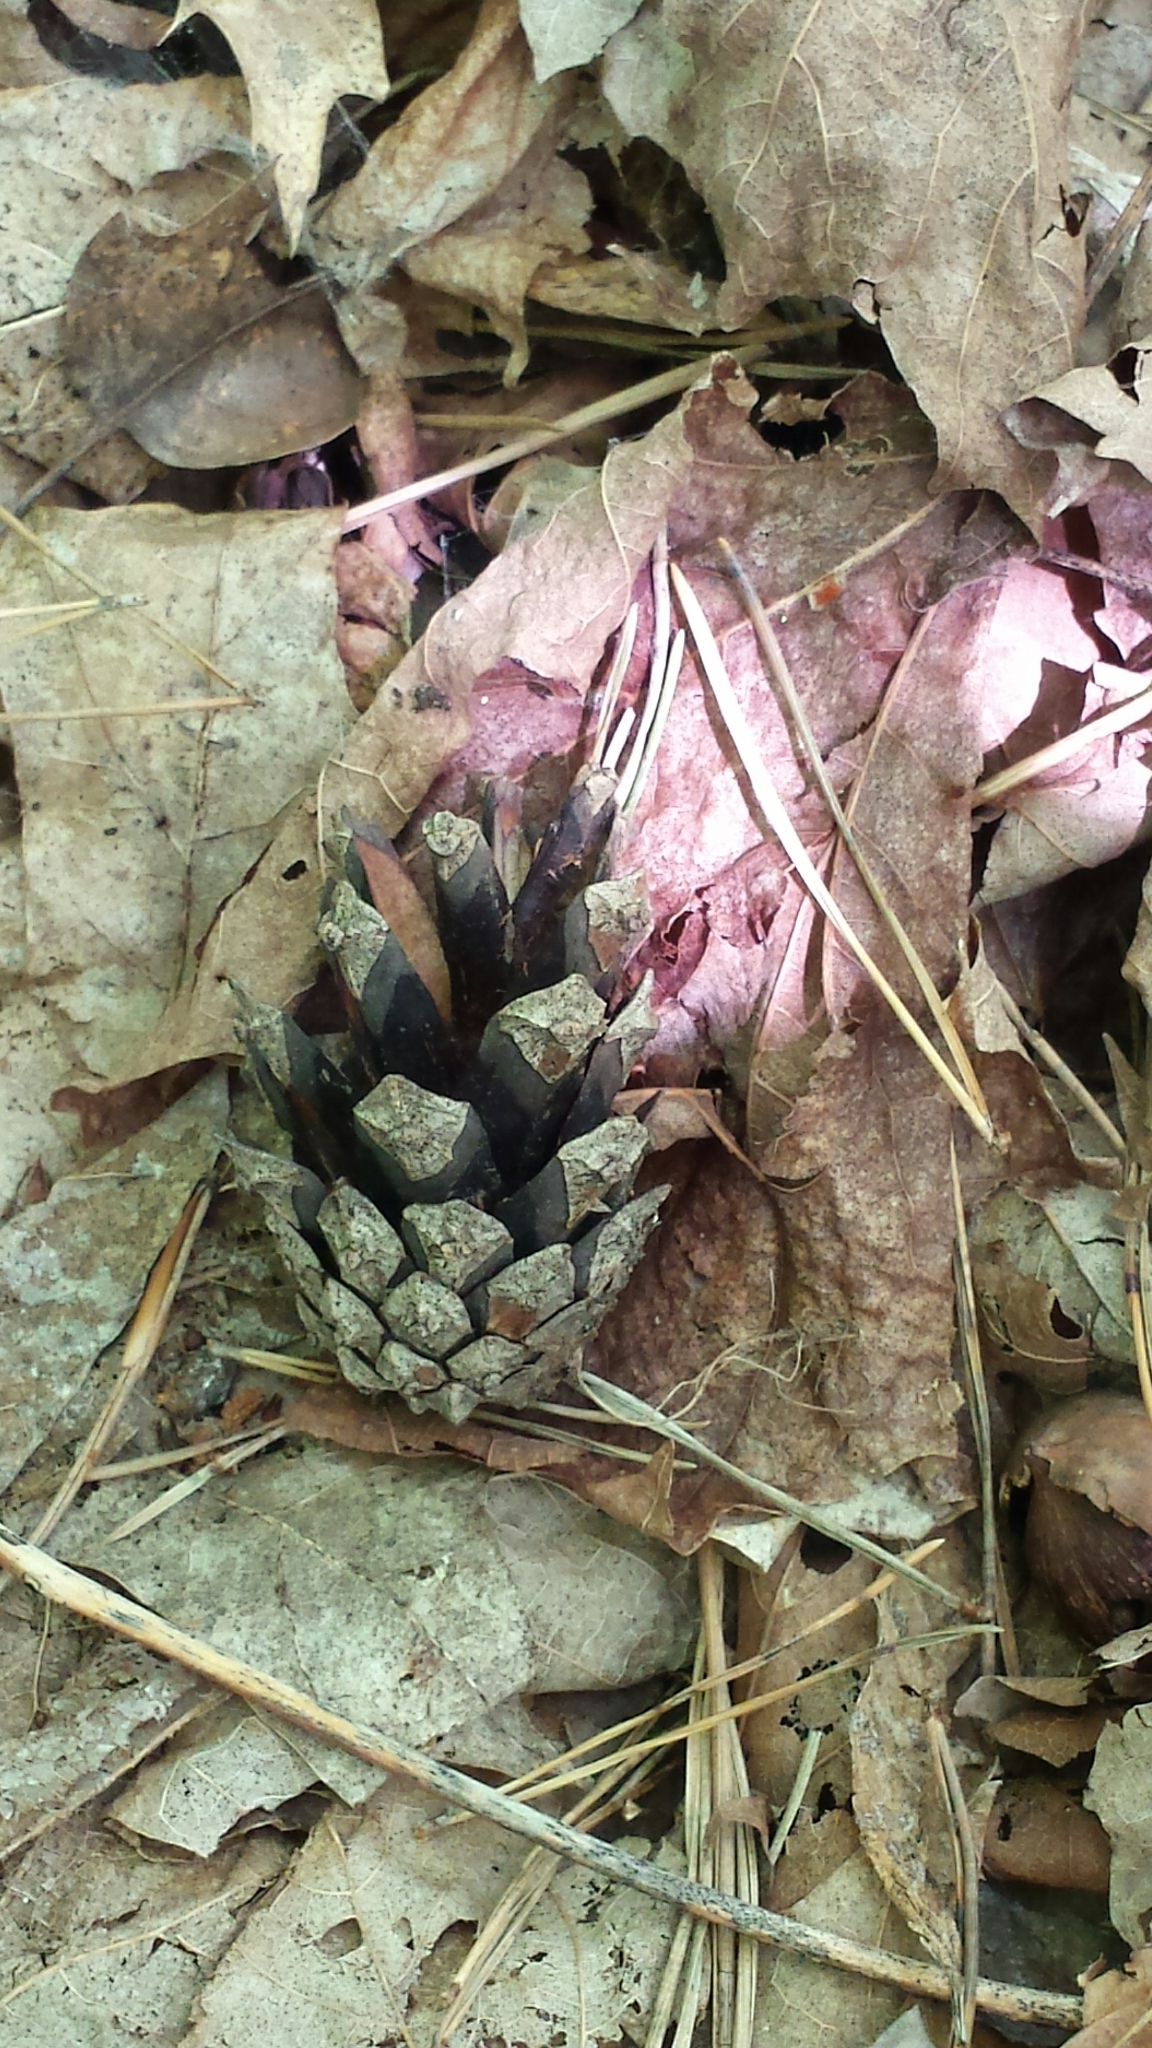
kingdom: Plantae
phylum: Tracheophyta
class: Pinopsida
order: Pinales
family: Pinaceae
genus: Pinus
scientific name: Pinus sylvestris
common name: Scots pine
